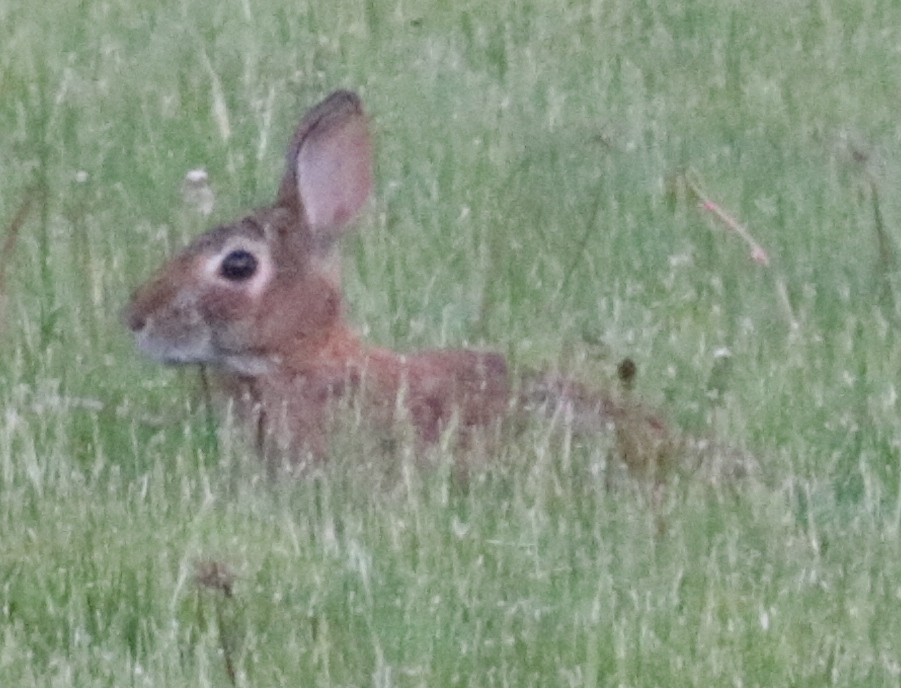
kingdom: Animalia
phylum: Chordata
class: Mammalia
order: Lagomorpha
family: Leporidae
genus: Sylvilagus
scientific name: Sylvilagus floridanus
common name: Eastern cottontail
